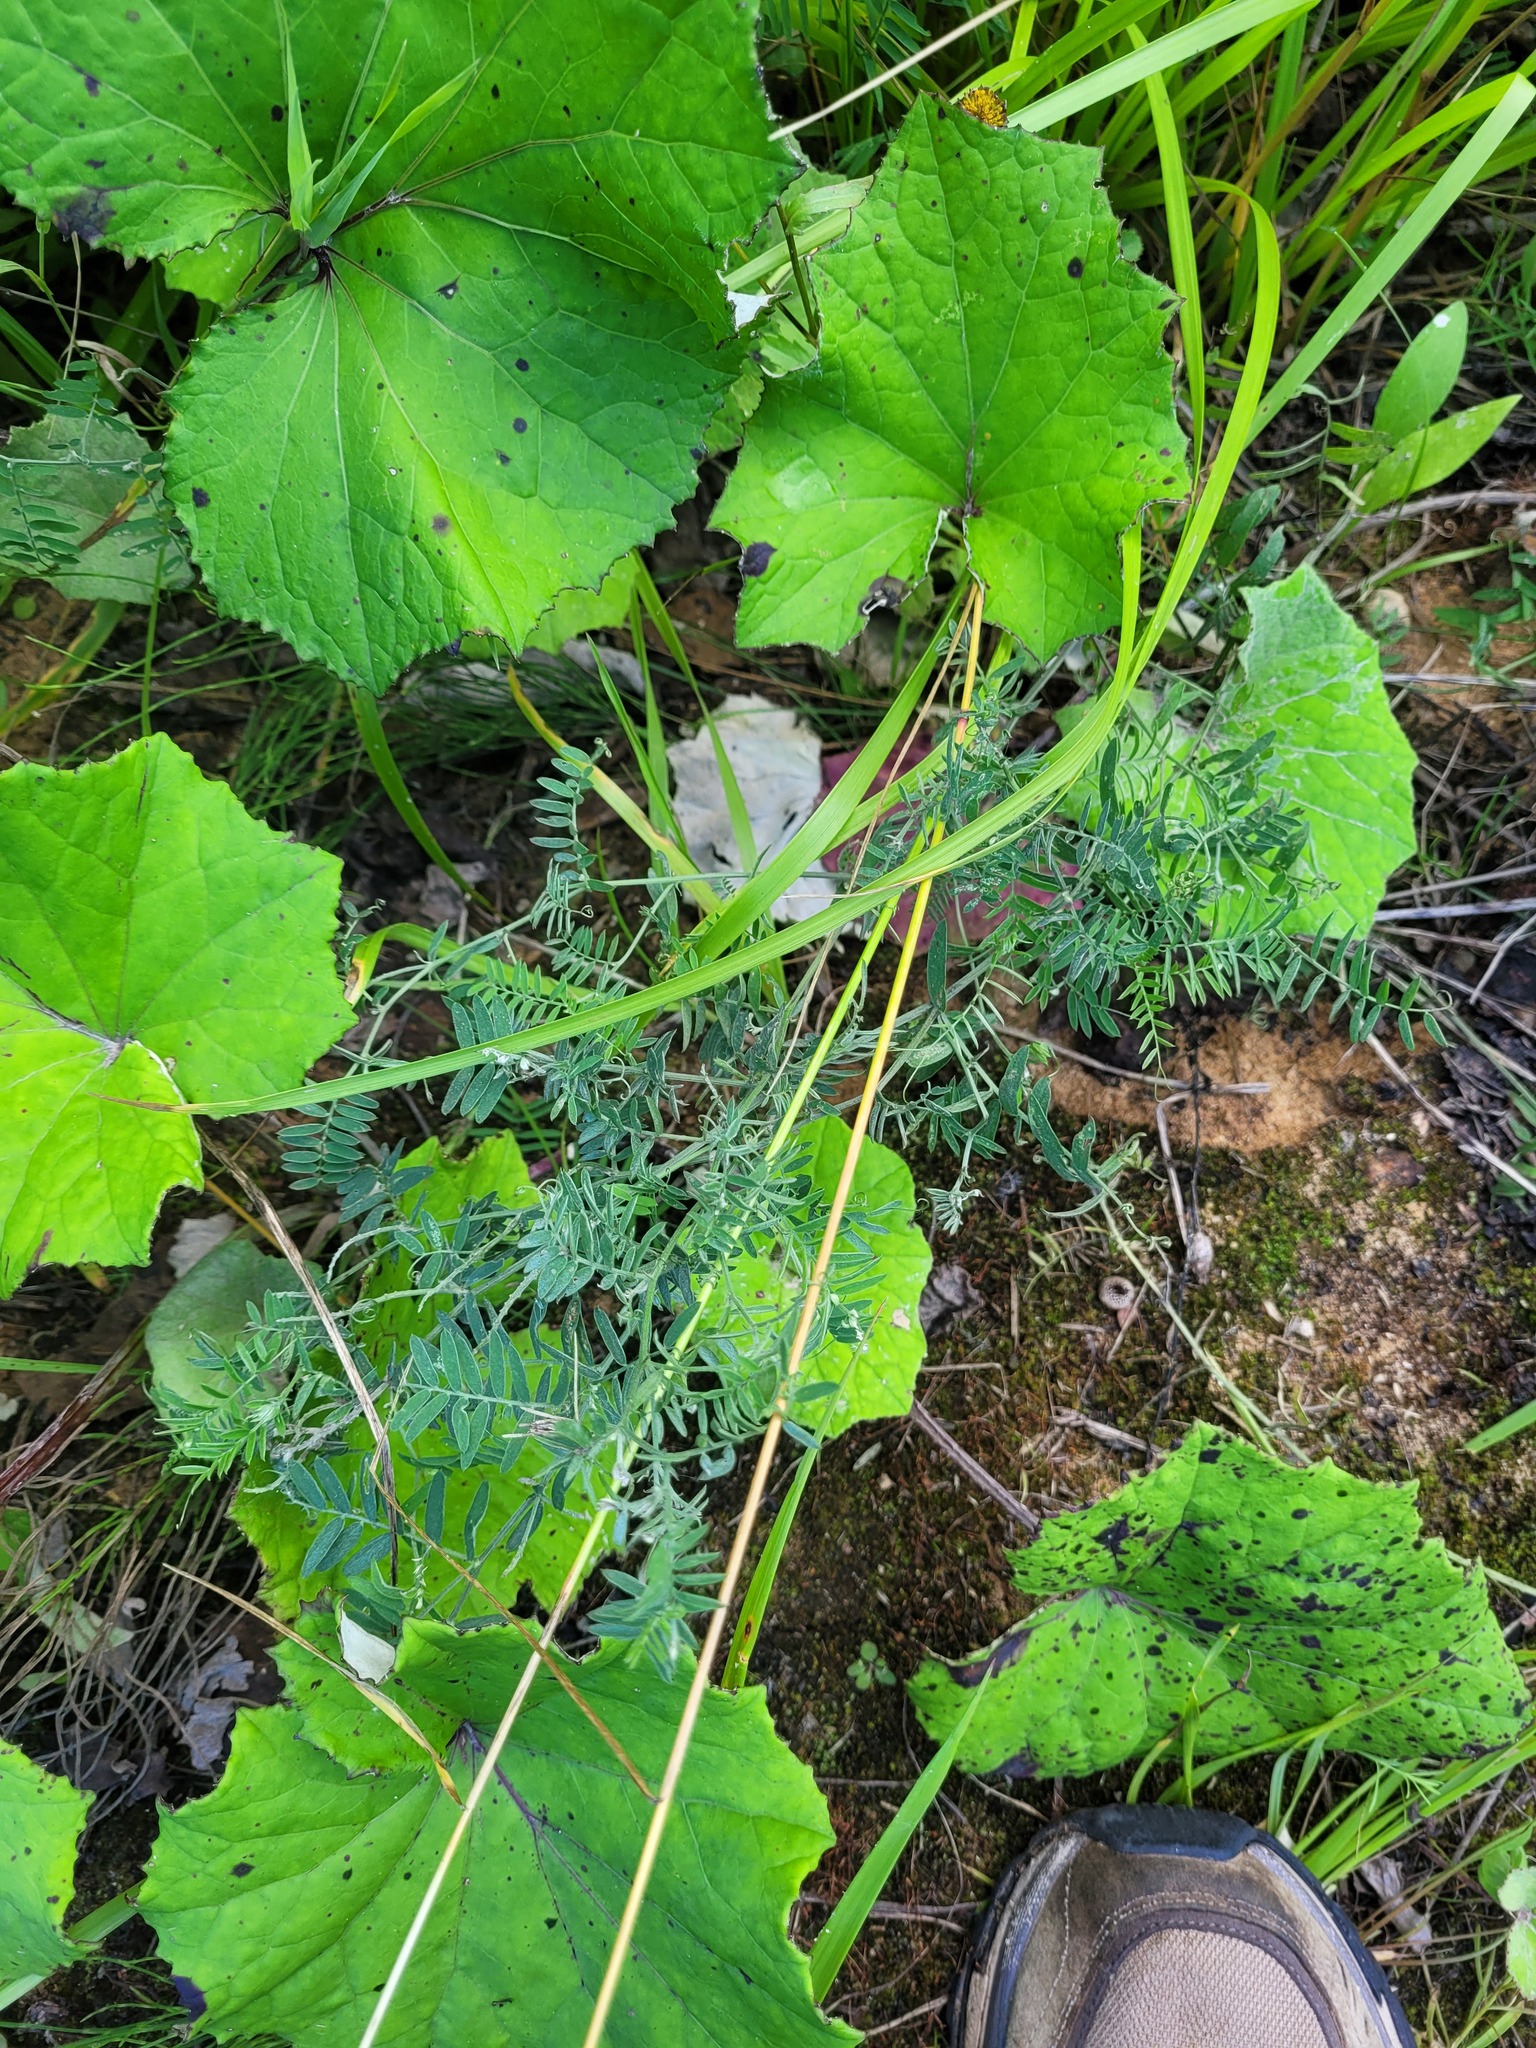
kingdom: Plantae
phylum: Tracheophyta
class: Magnoliopsida
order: Fabales
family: Fabaceae
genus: Vicia
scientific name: Vicia cracca
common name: Bird vetch
